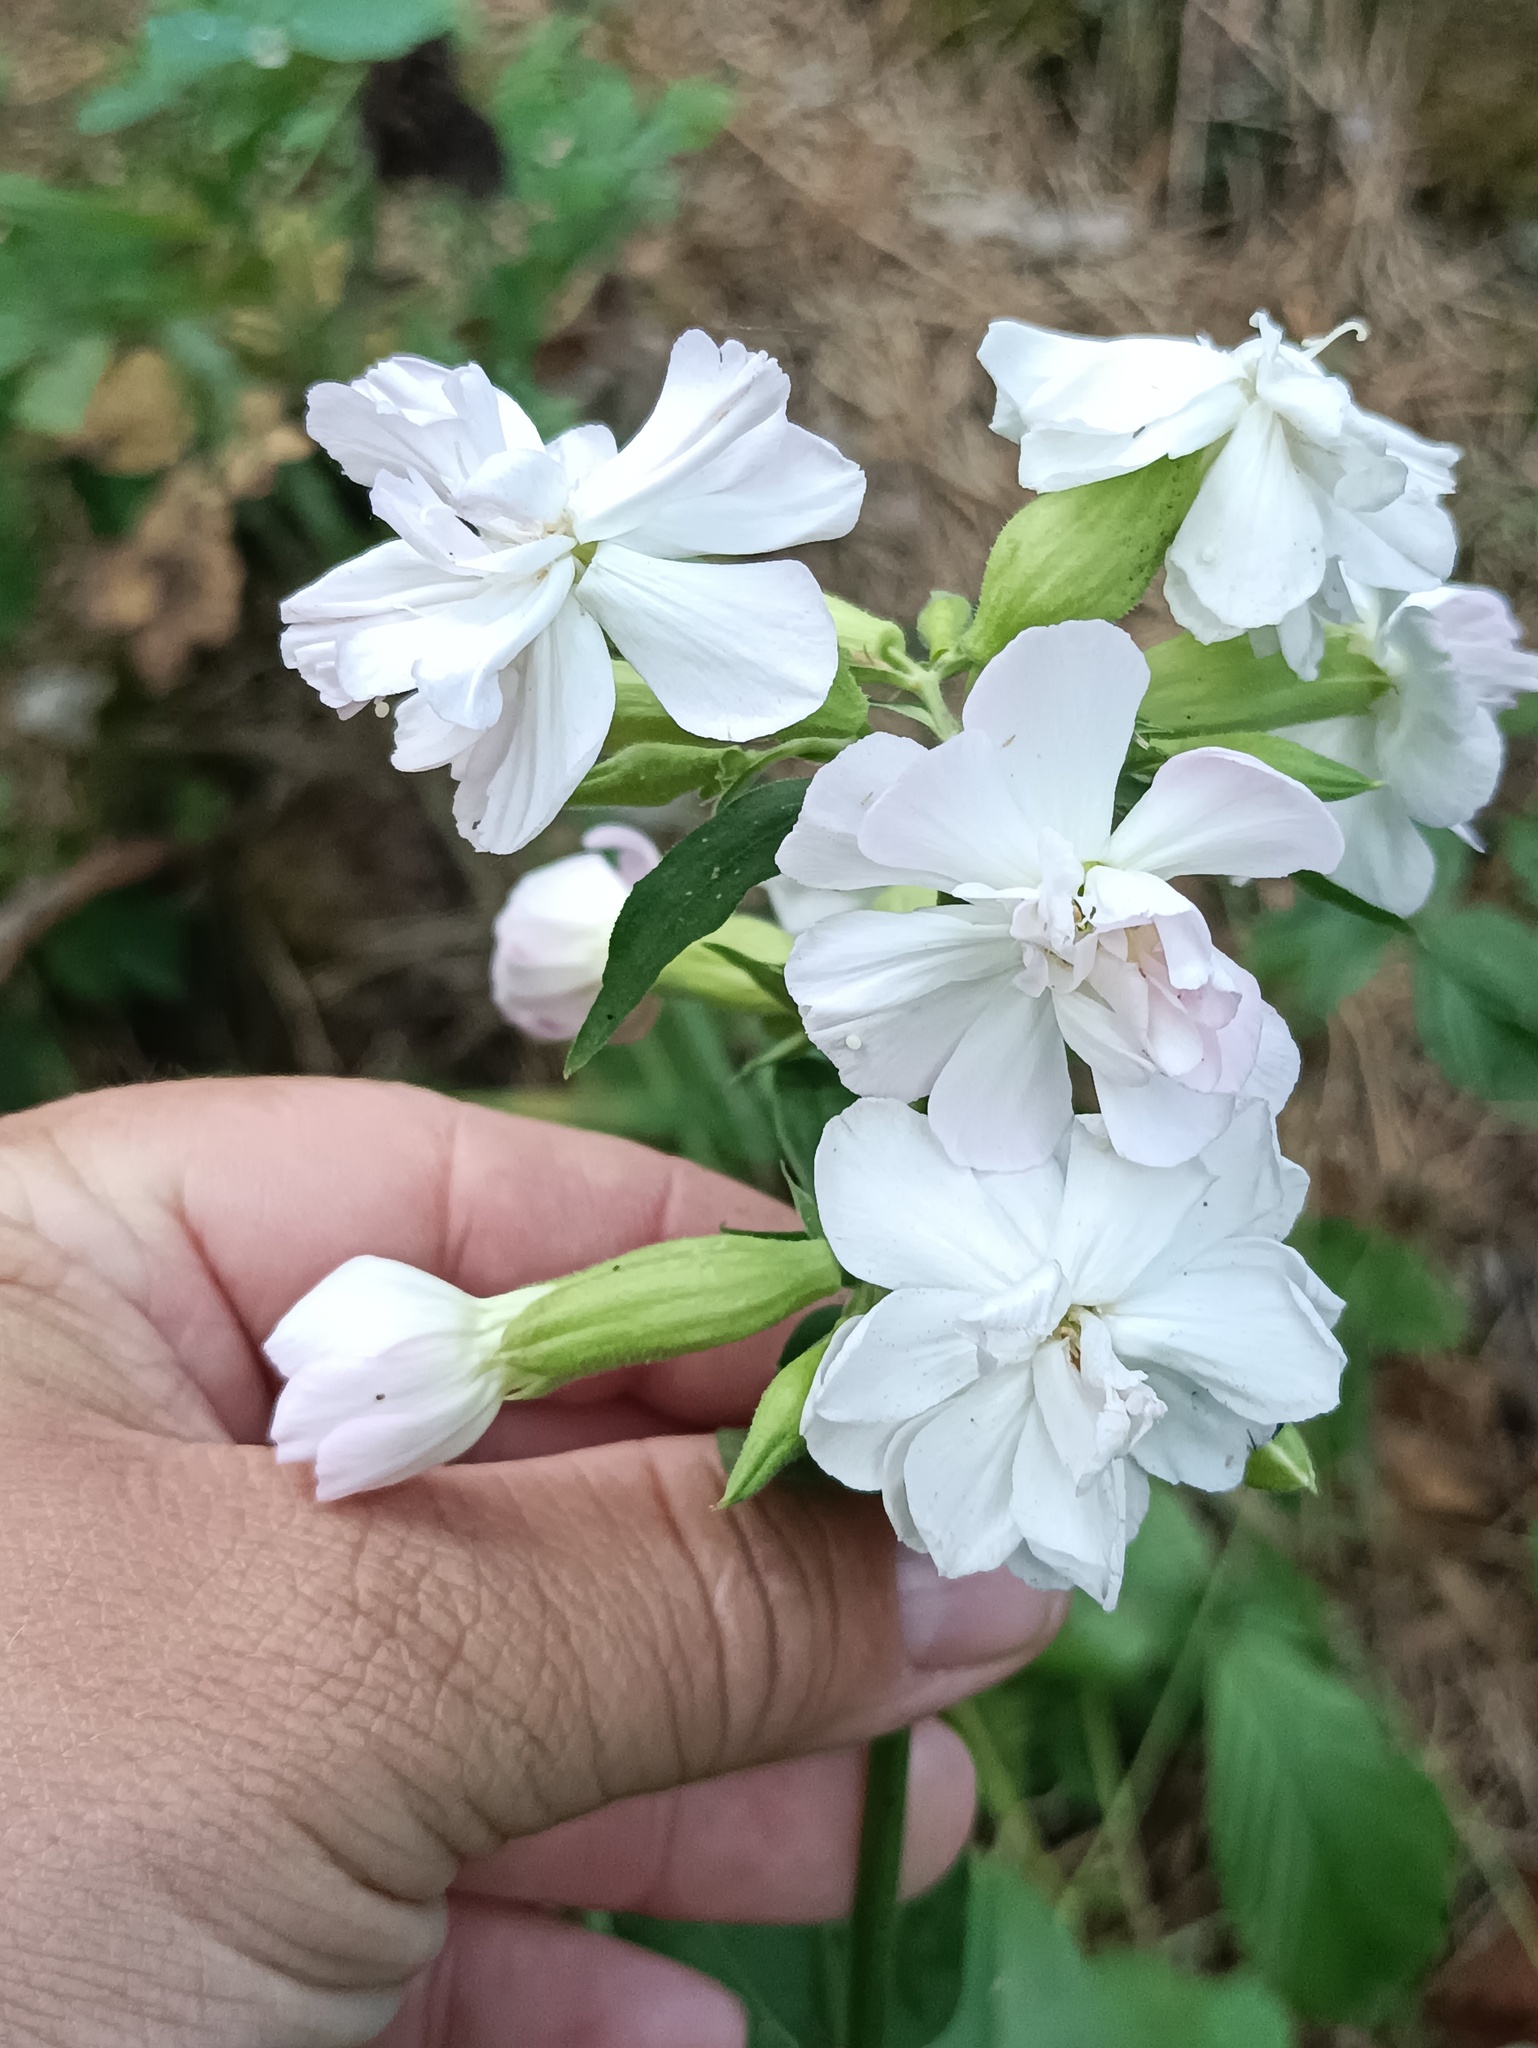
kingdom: Plantae
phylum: Tracheophyta
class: Magnoliopsida
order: Caryophyllales
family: Caryophyllaceae
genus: Saponaria
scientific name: Saponaria officinalis
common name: Soapwort
